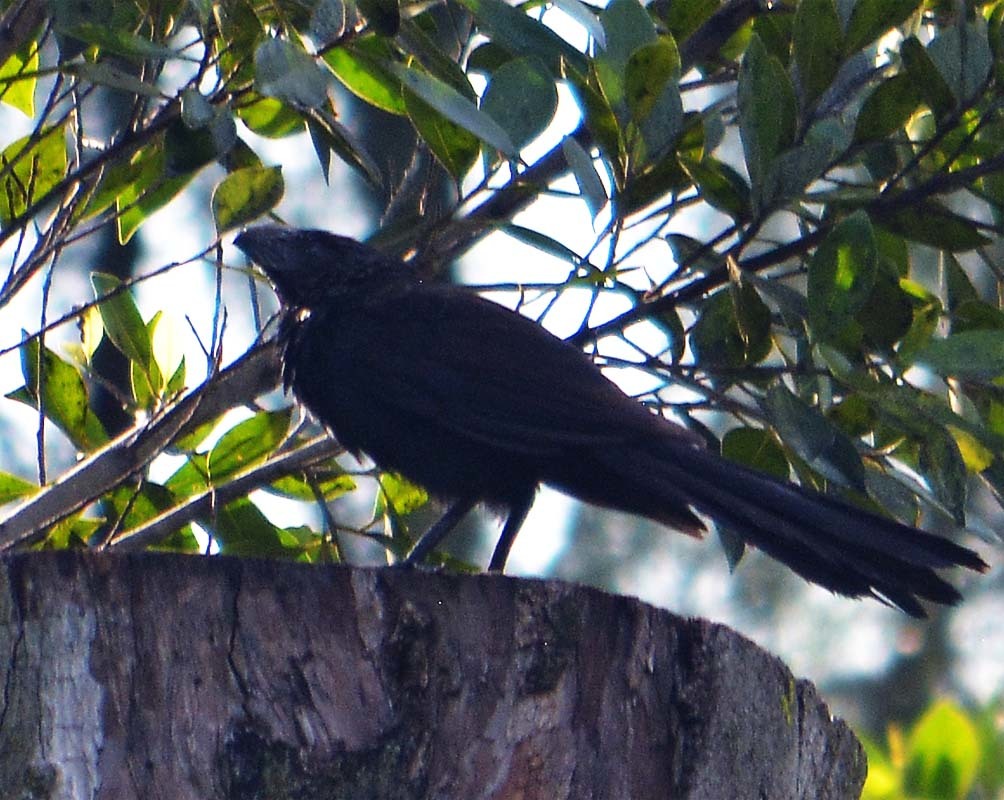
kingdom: Animalia
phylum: Chordata
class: Aves
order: Cuculiformes
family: Cuculidae
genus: Crotophaga
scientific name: Crotophaga sulcirostris
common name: Groove-billed ani
